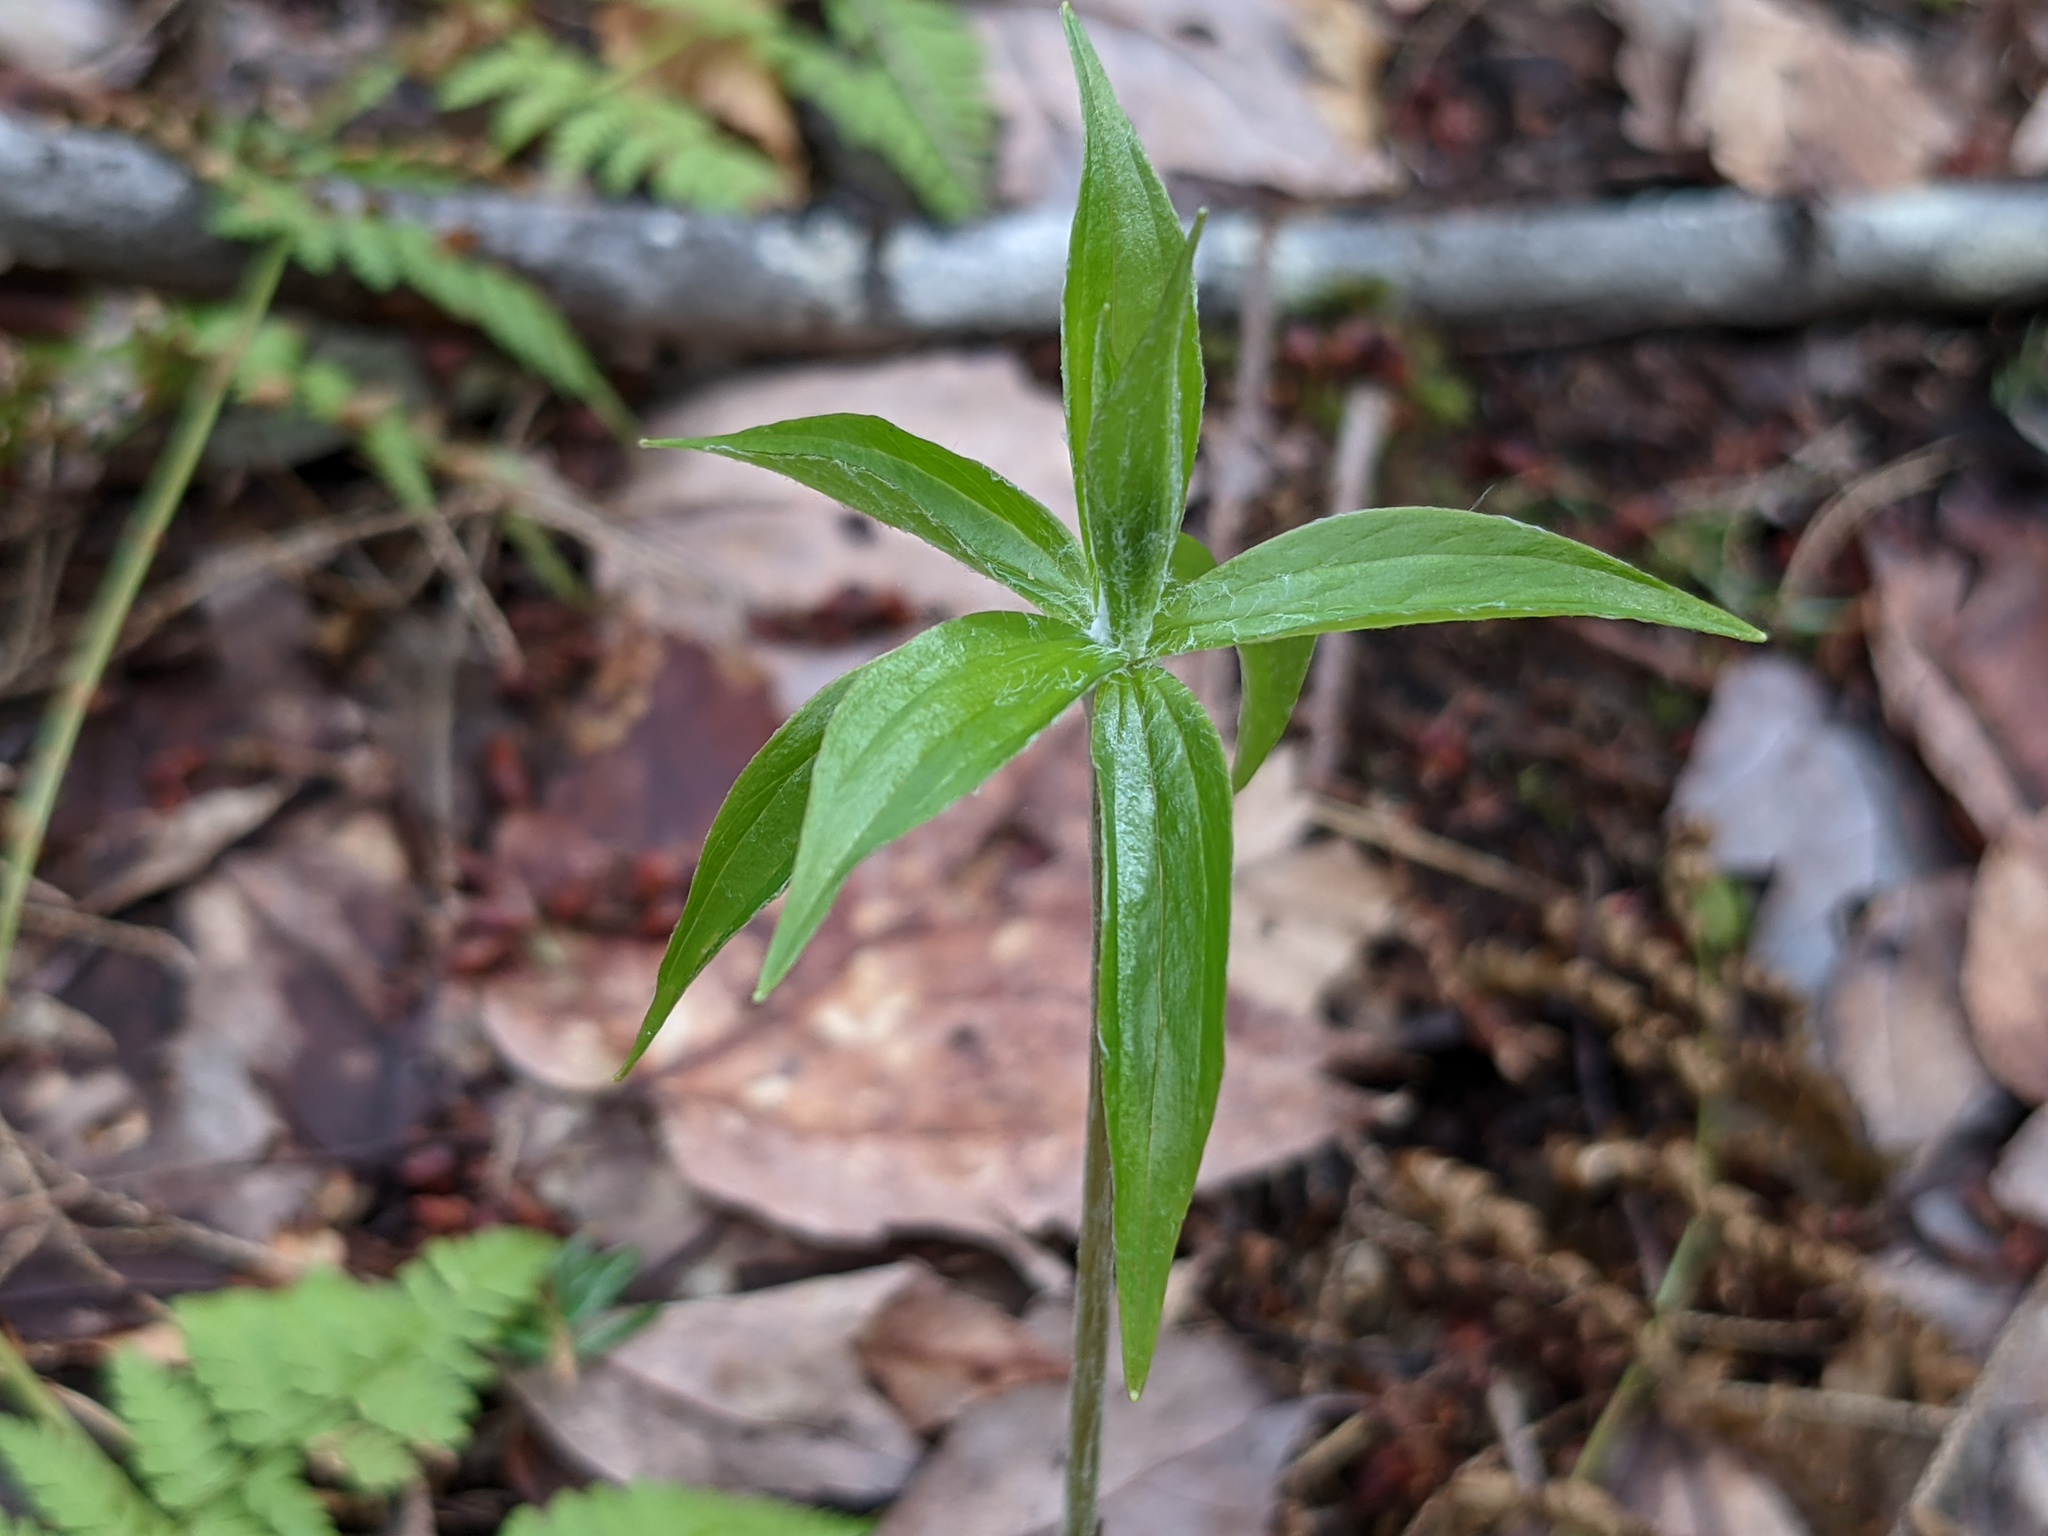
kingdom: Plantae
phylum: Tracheophyta
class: Liliopsida
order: Liliales
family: Liliaceae
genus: Medeola
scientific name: Medeola virginiana
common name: Indian cucumber-root
